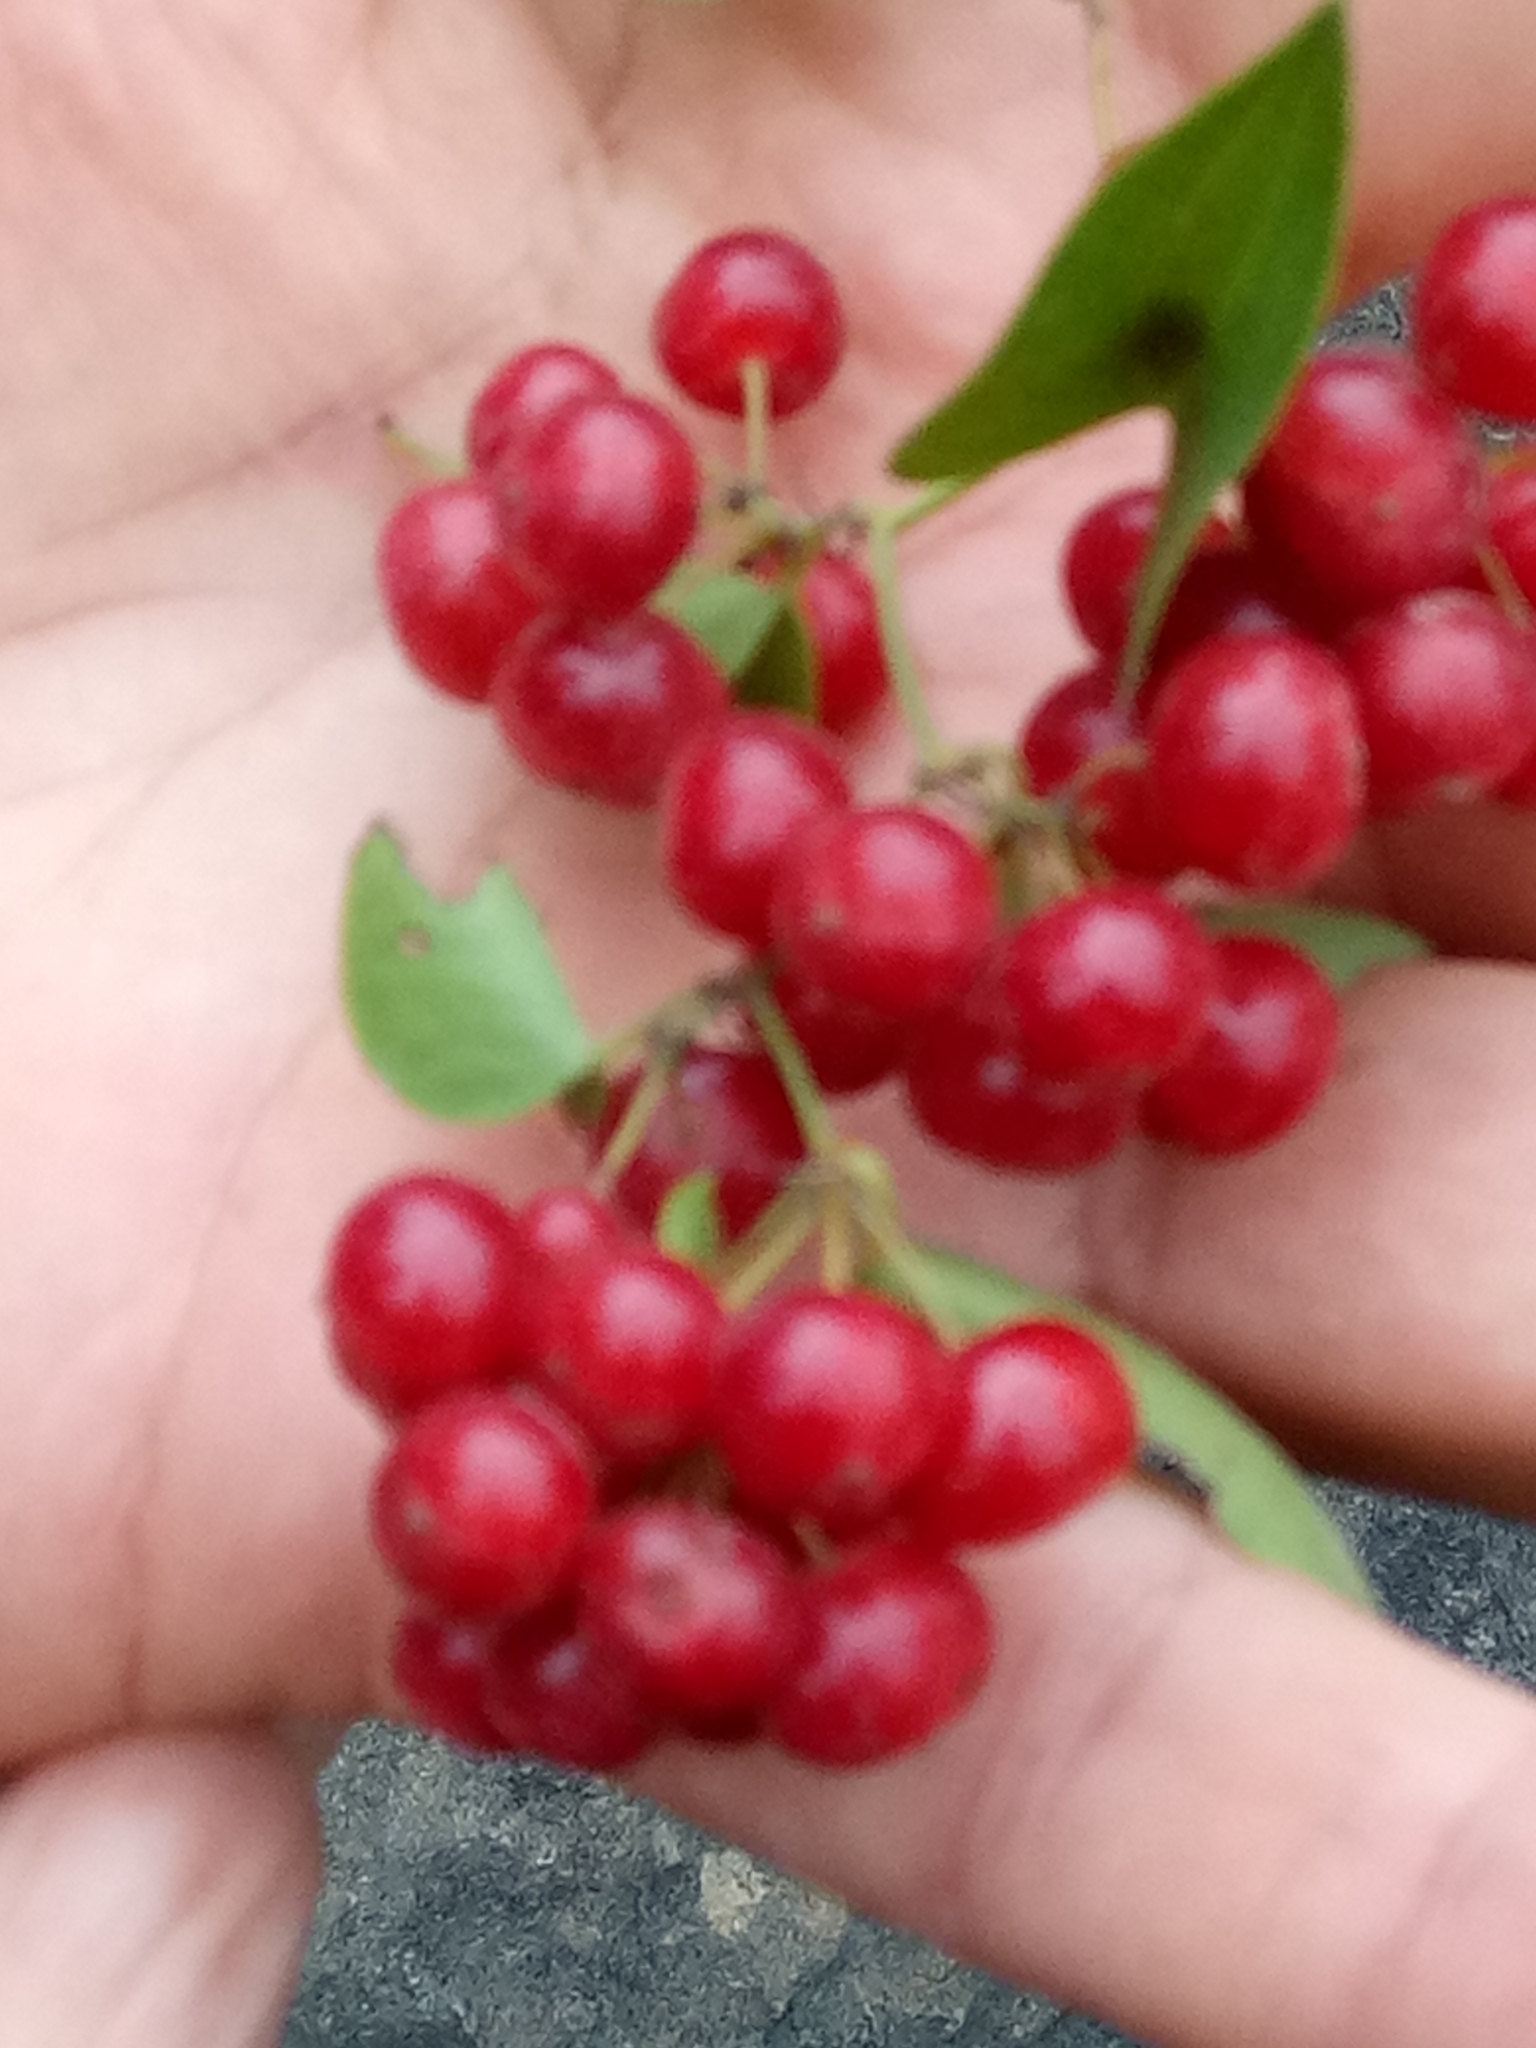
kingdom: Plantae
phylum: Tracheophyta
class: Liliopsida
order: Liliales
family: Smilacaceae
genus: Smilax
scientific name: Smilax aspera
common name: Common smilax
